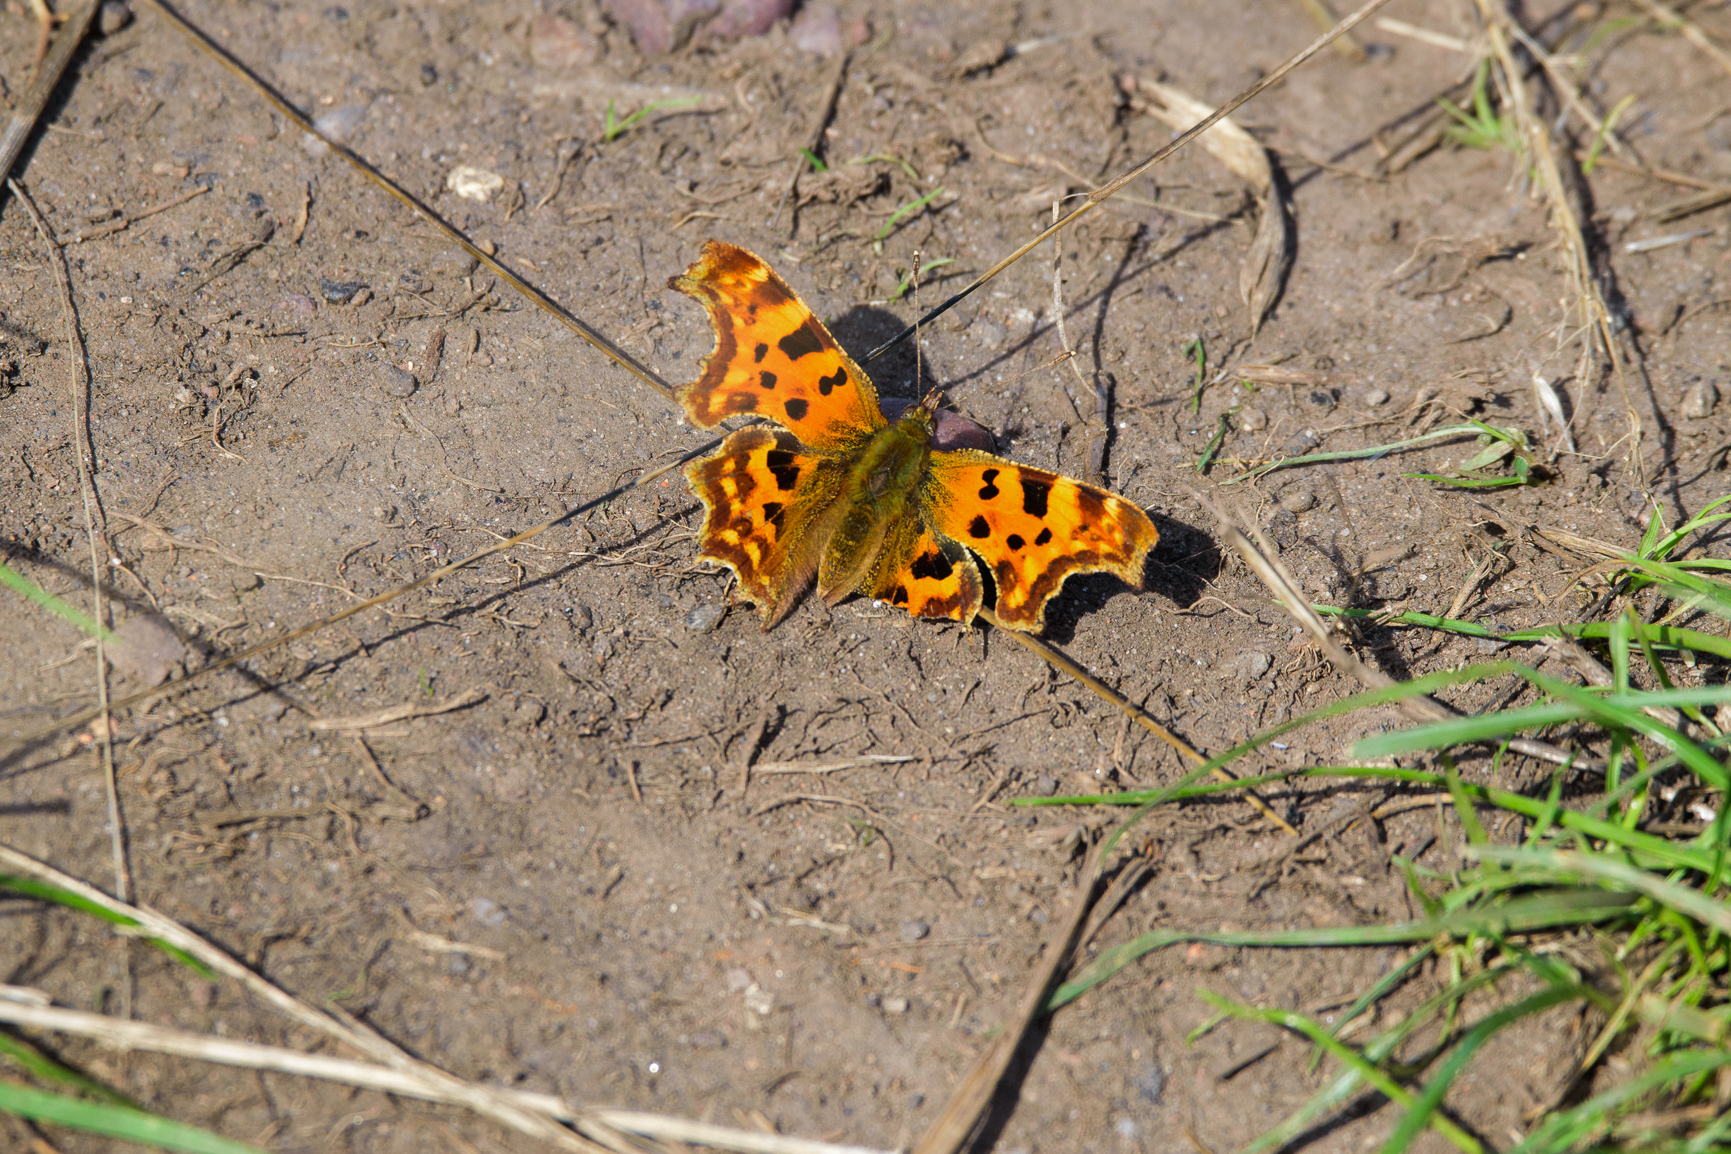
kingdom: Animalia
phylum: Arthropoda
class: Insecta
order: Lepidoptera
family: Nymphalidae
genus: Polygonia
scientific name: Polygonia c-album
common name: Comma
